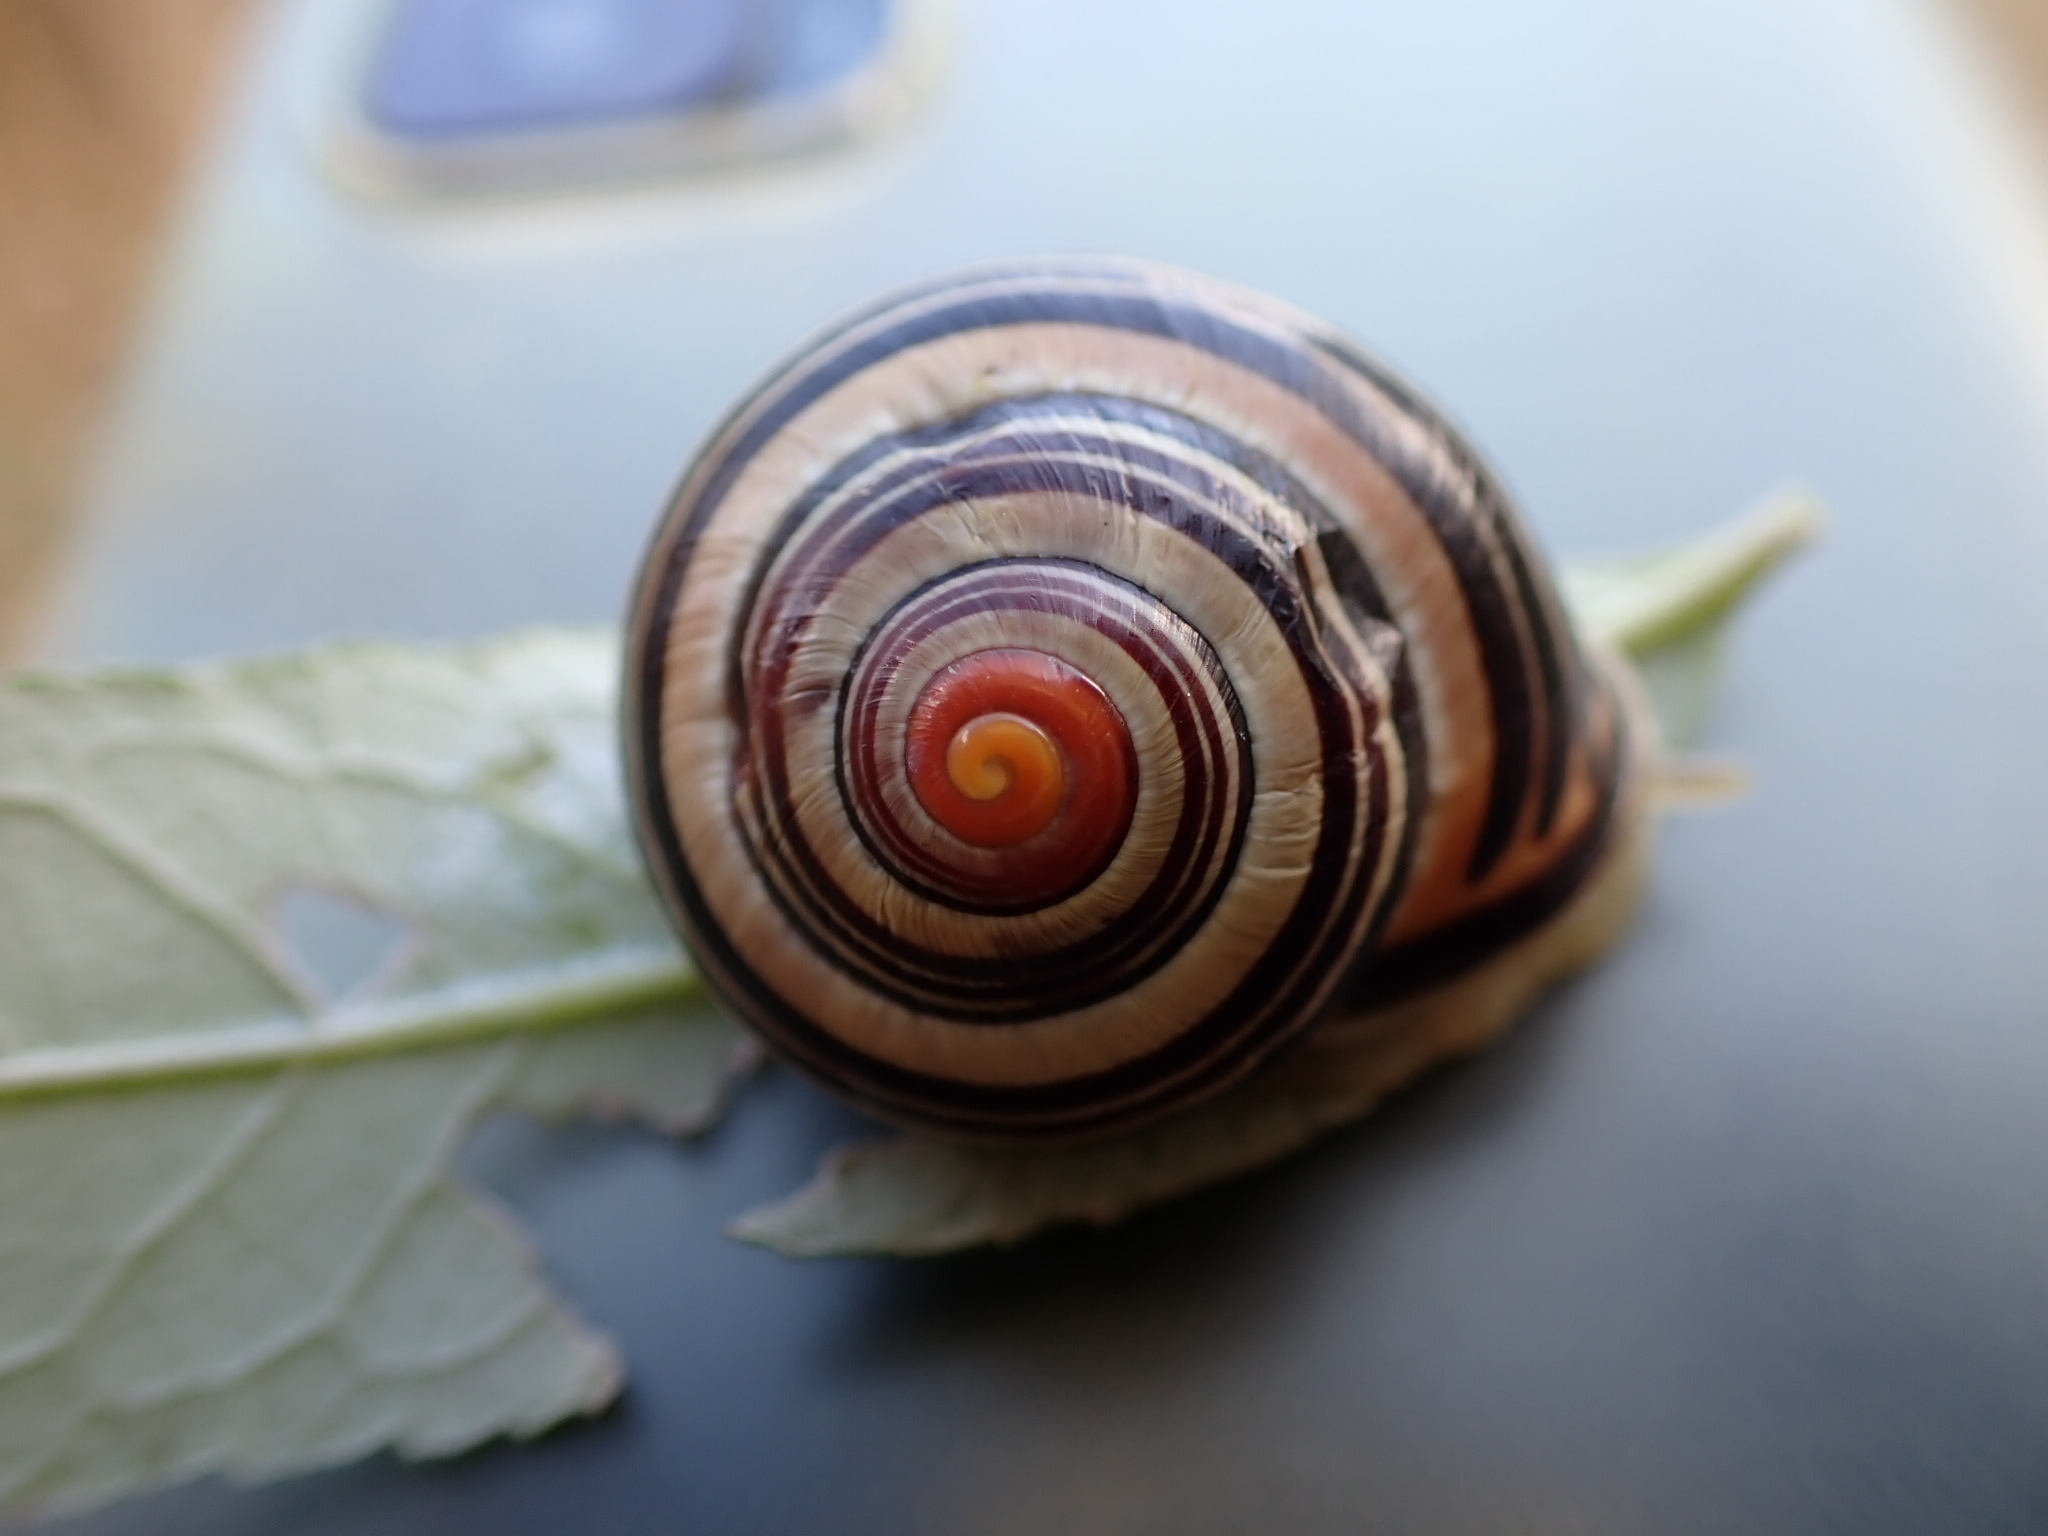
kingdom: Animalia
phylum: Mollusca
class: Gastropoda
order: Stylommatophora
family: Helicidae
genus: Cepaea
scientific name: Cepaea nemoralis
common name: Grovesnail
